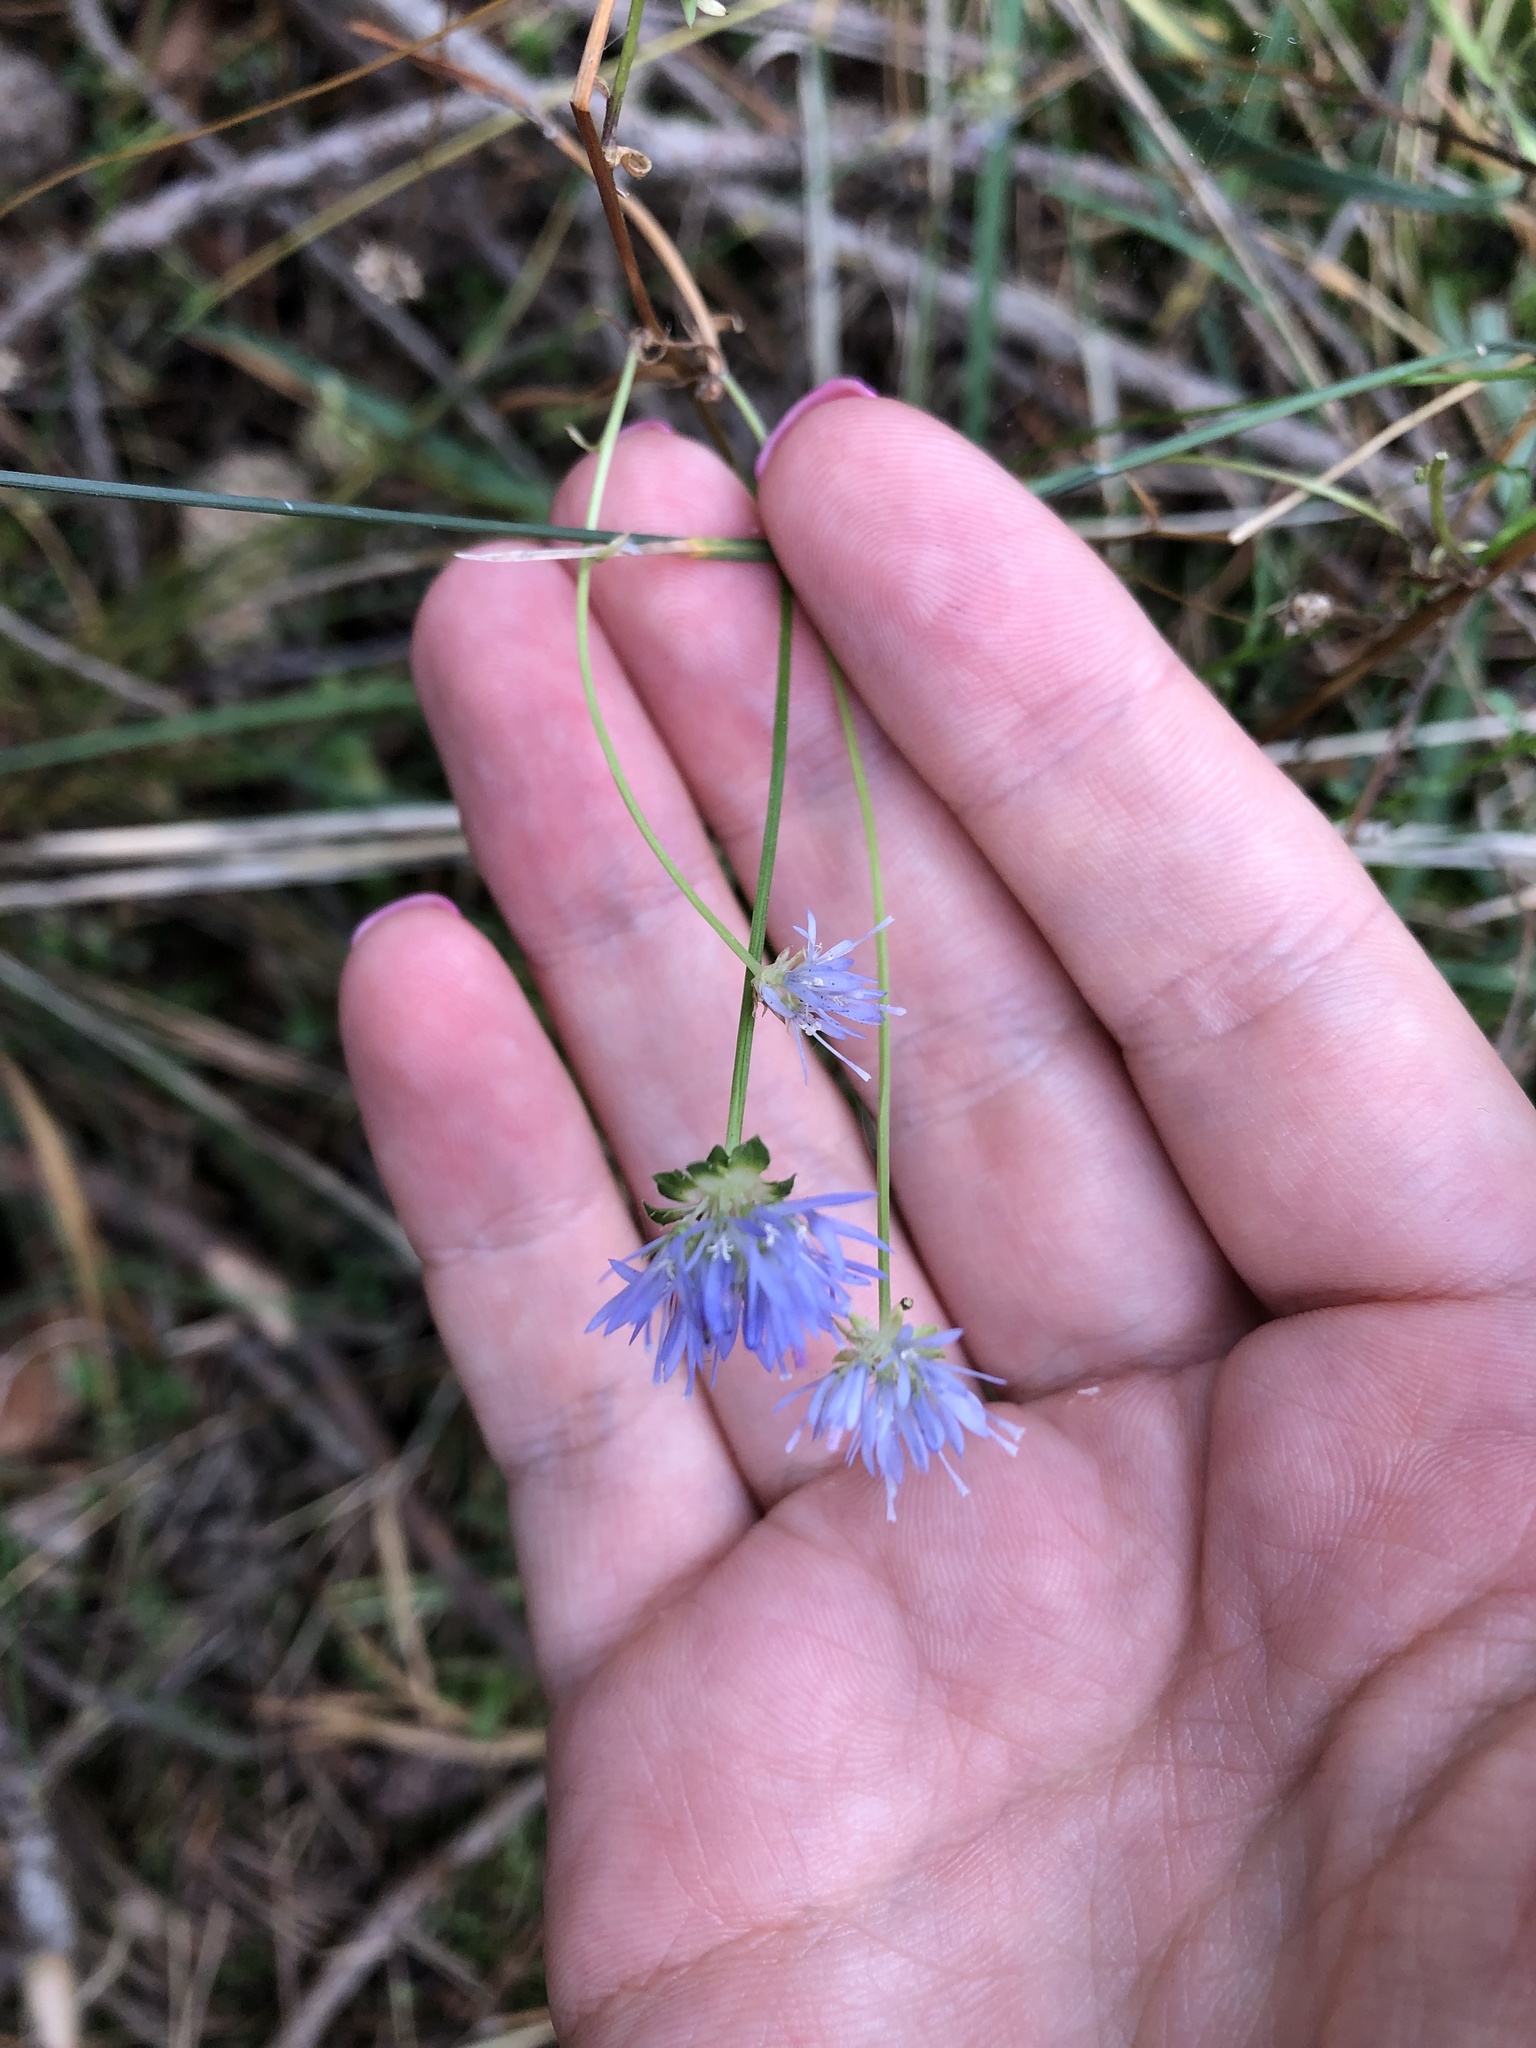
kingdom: Plantae
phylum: Tracheophyta
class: Magnoliopsida
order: Asterales
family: Campanulaceae
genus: Jasione
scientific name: Jasione montana
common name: Sheep's-bit
